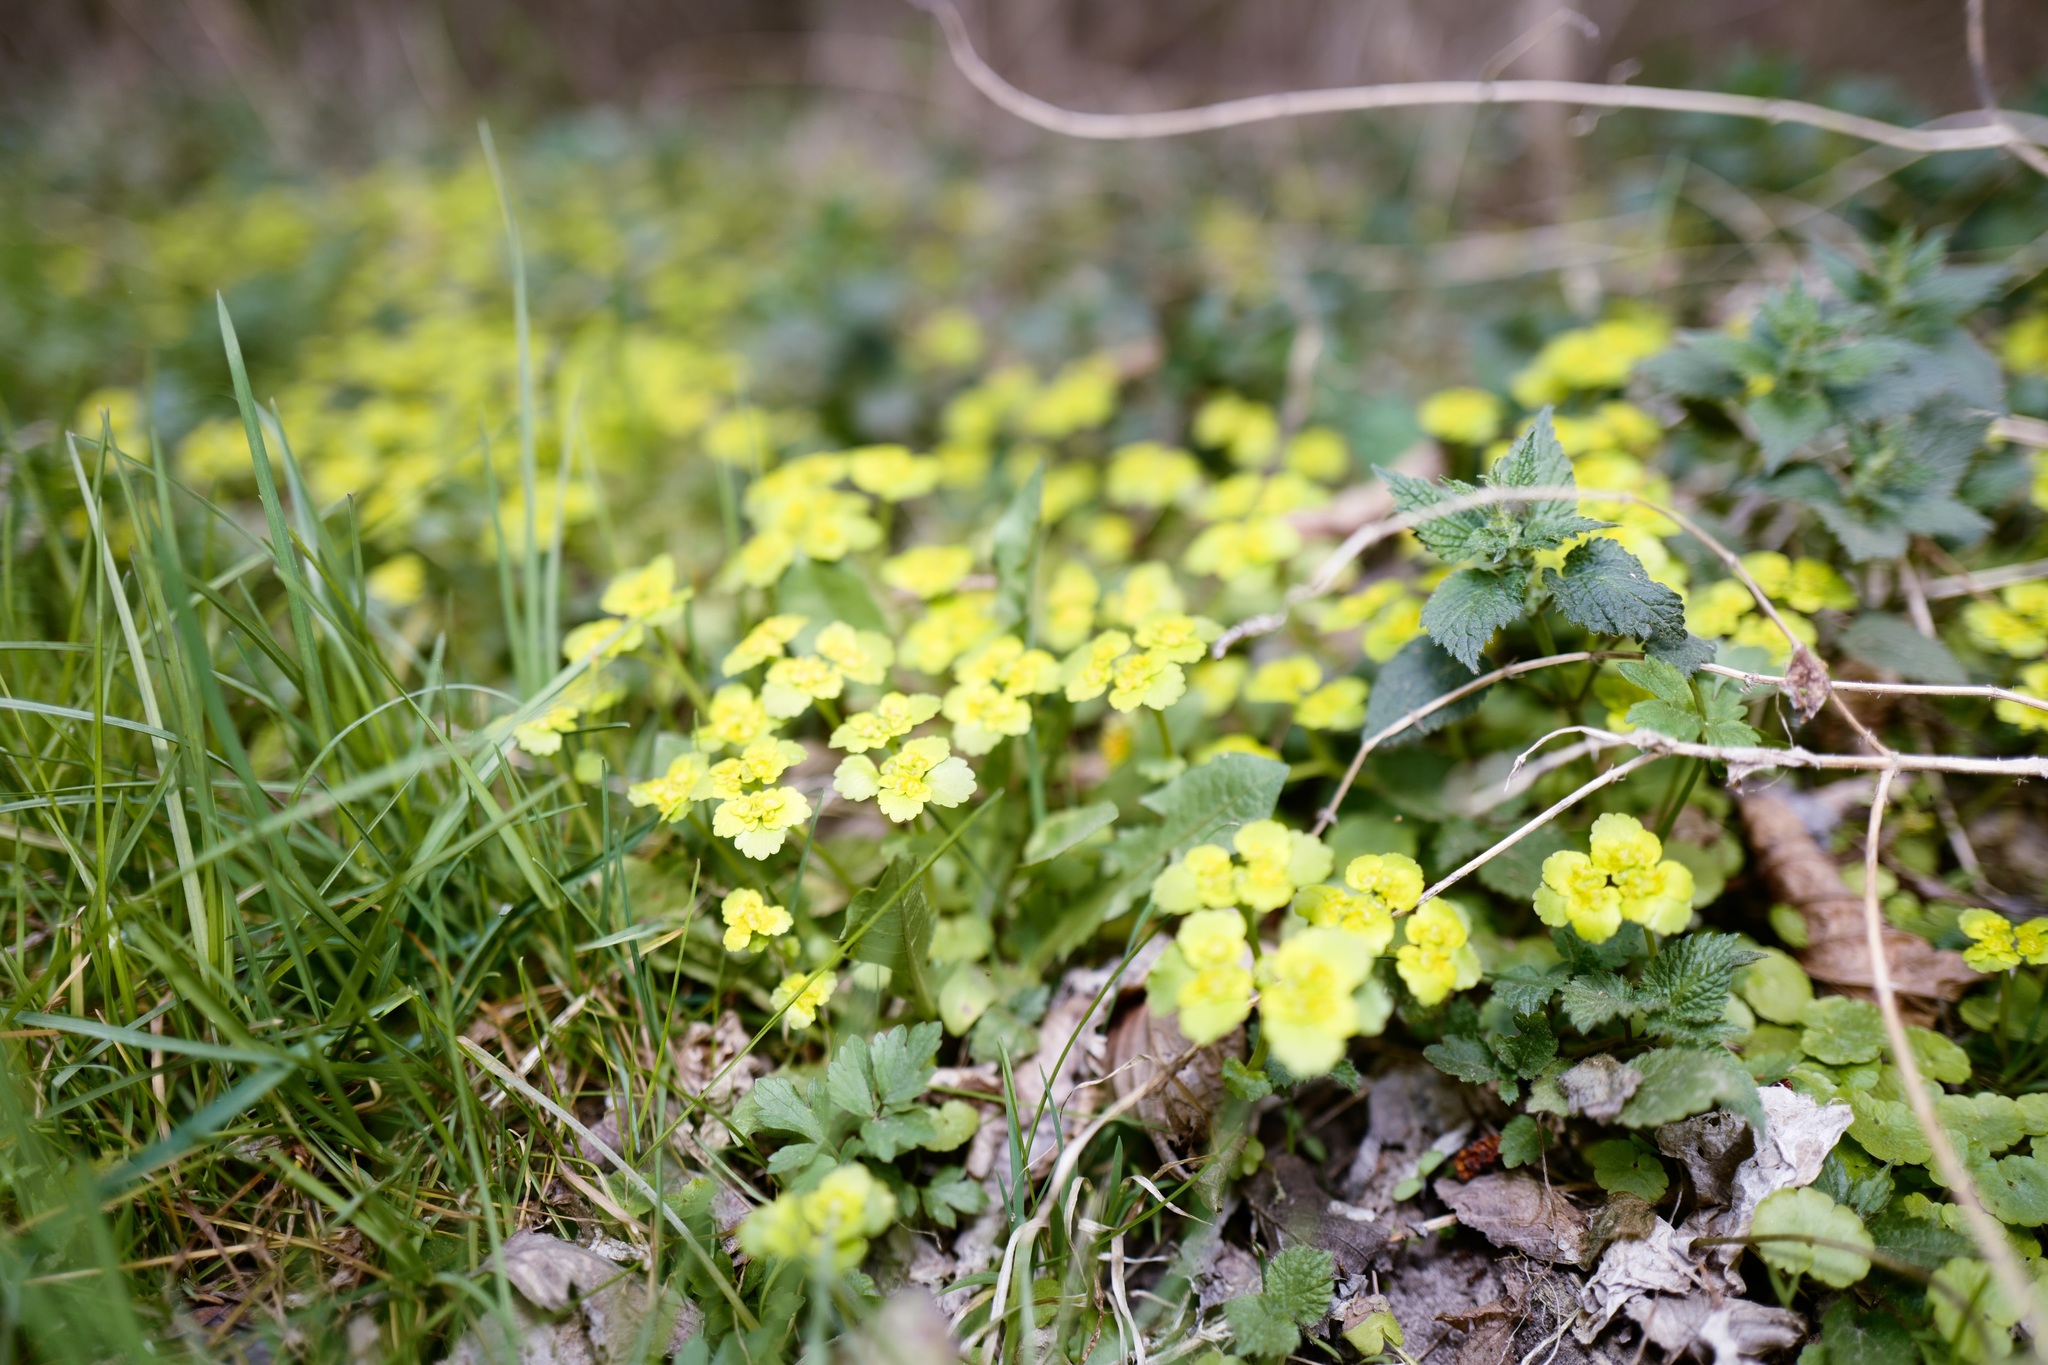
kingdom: Plantae
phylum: Tracheophyta
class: Magnoliopsida
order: Saxifragales
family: Saxifragaceae
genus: Chrysosplenium
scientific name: Chrysosplenium alternifolium
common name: Alternate-leaved golden-saxifrage
